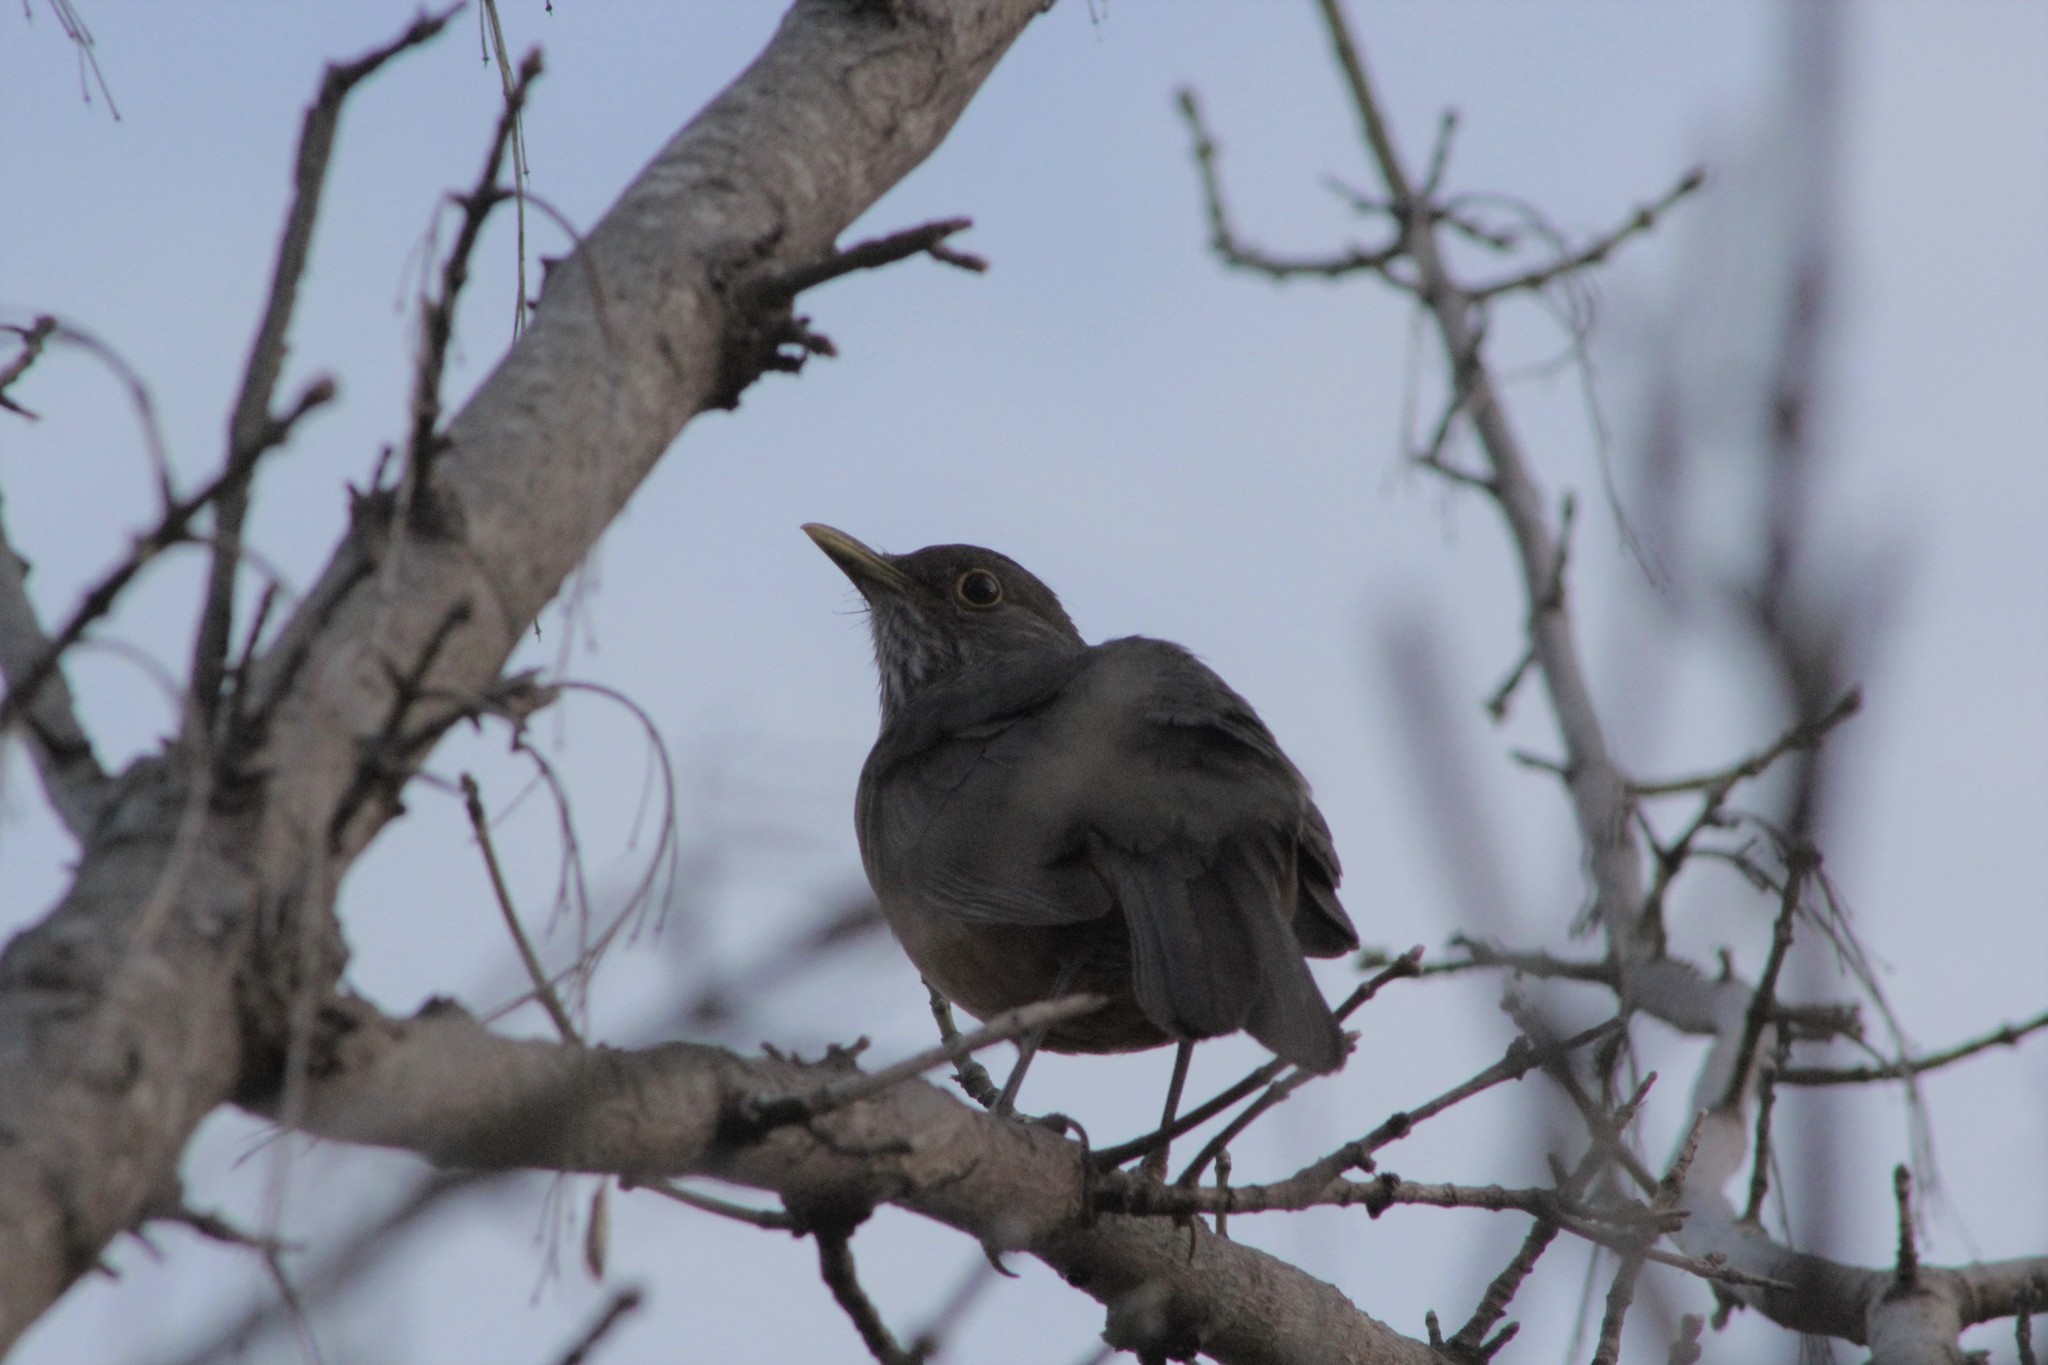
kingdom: Animalia
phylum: Chordata
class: Aves
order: Passeriformes
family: Turdidae
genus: Turdus
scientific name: Turdus rufiventris
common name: Rufous-bellied thrush
